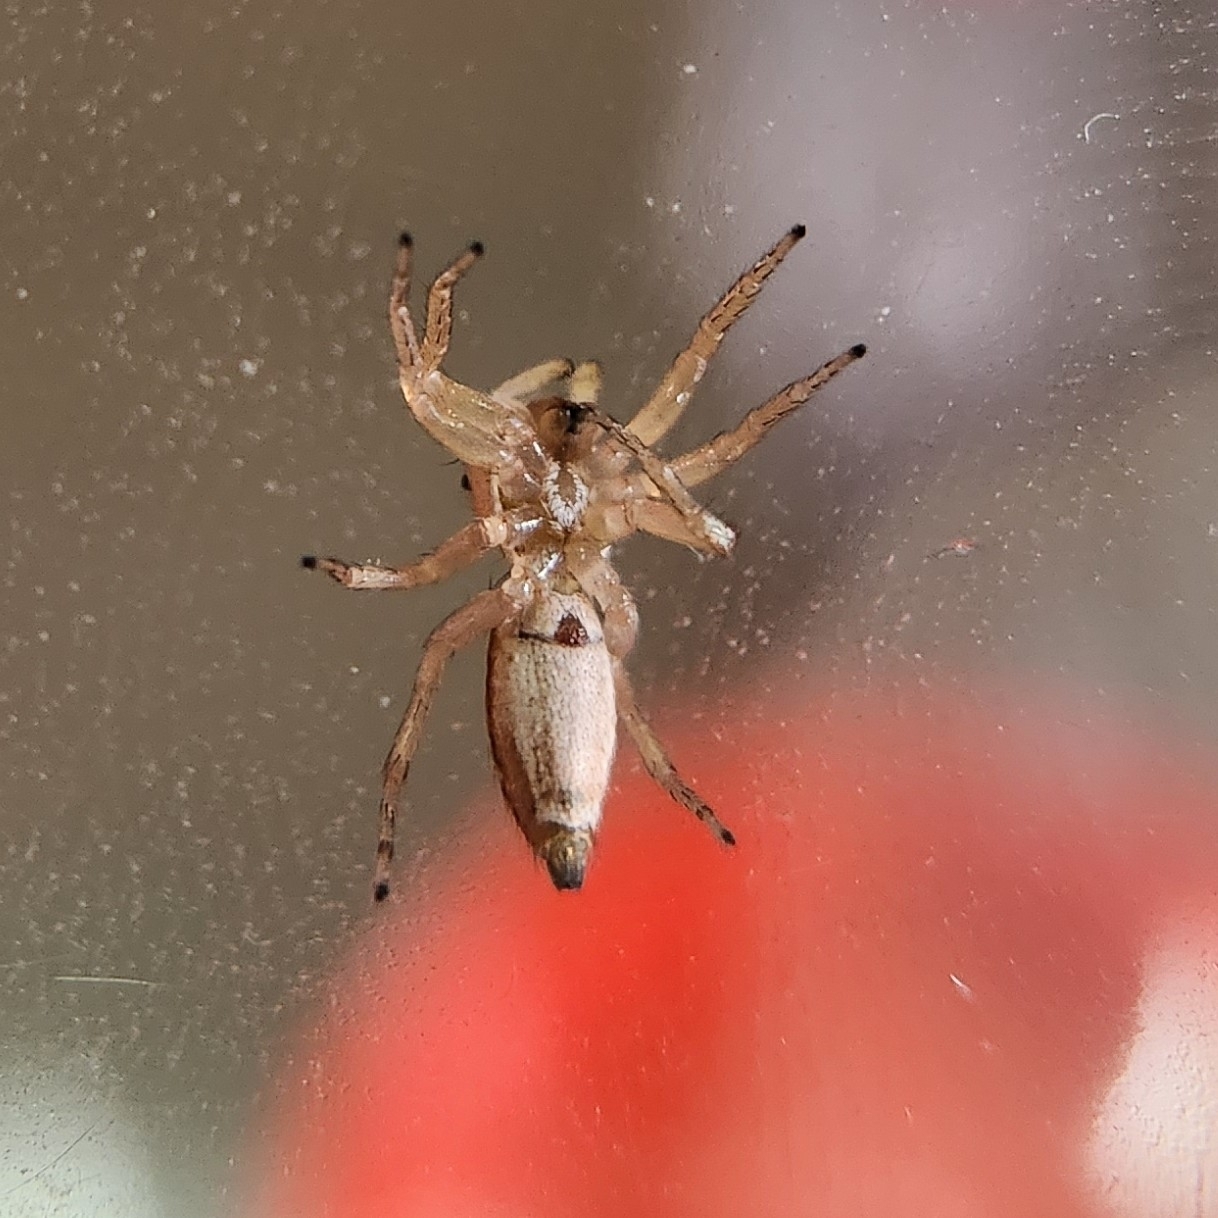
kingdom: Animalia
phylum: Arthropoda
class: Arachnida
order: Araneae
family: Salticidae
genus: Cosmophasis
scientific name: Cosmophasis lami
